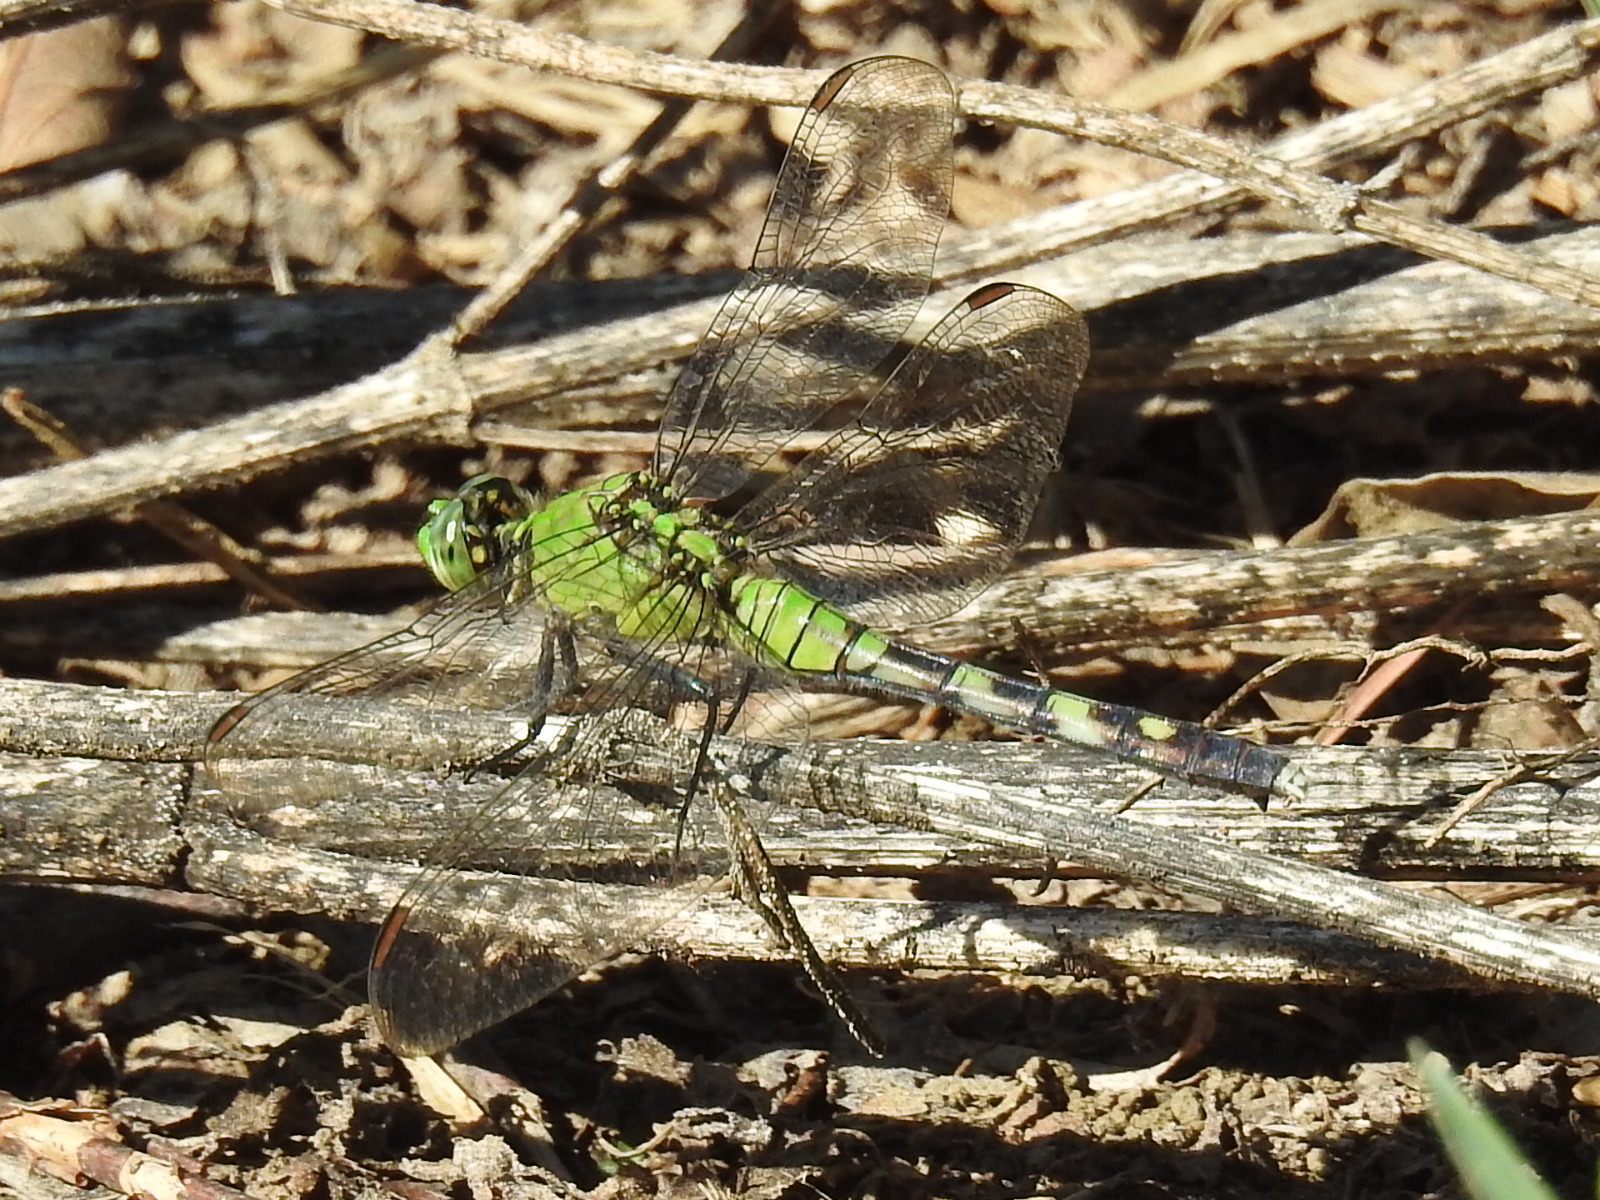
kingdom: Animalia
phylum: Arthropoda
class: Insecta
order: Odonata
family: Libellulidae
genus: Erythemis
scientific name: Erythemis simplicicollis
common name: Eastern pondhawk
